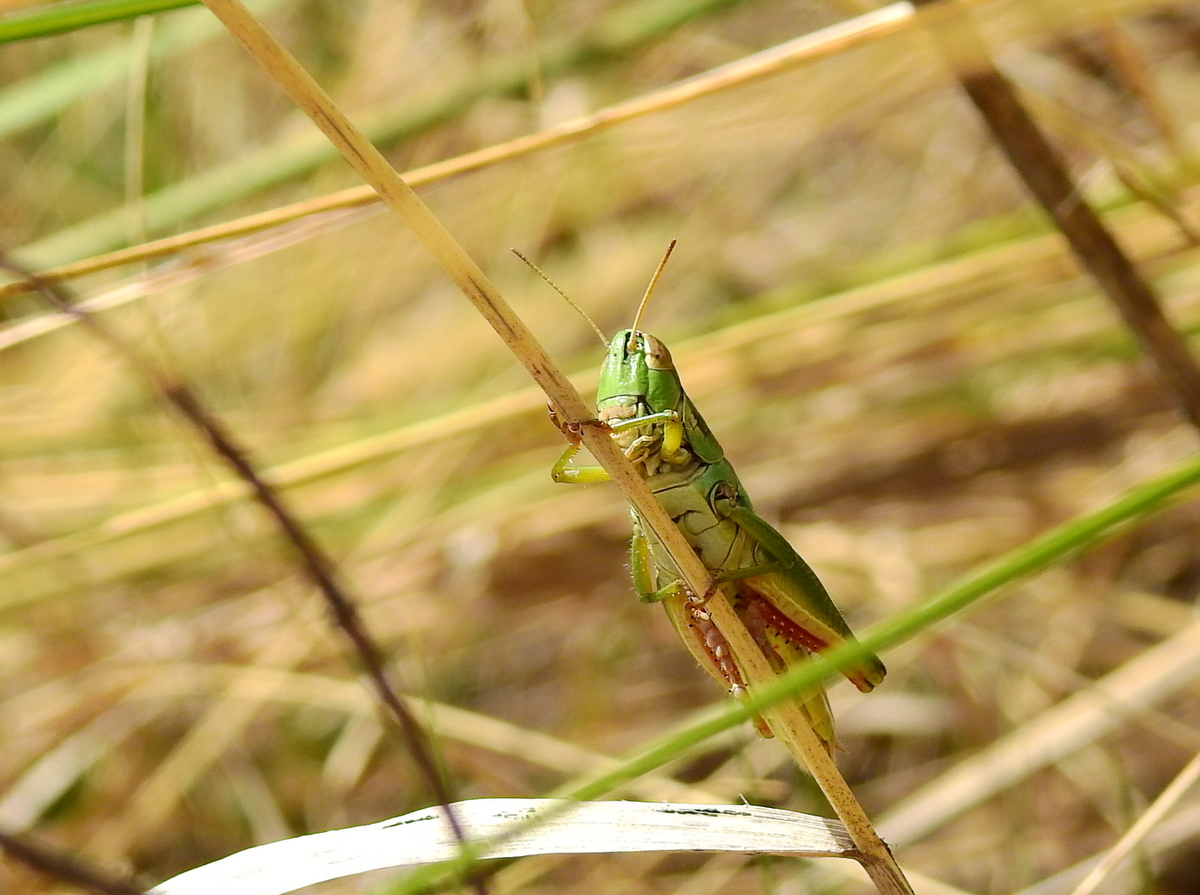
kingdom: Animalia
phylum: Arthropoda
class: Insecta
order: Orthoptera
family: Acrididae
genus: Scotussa
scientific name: Scotussa cliens
